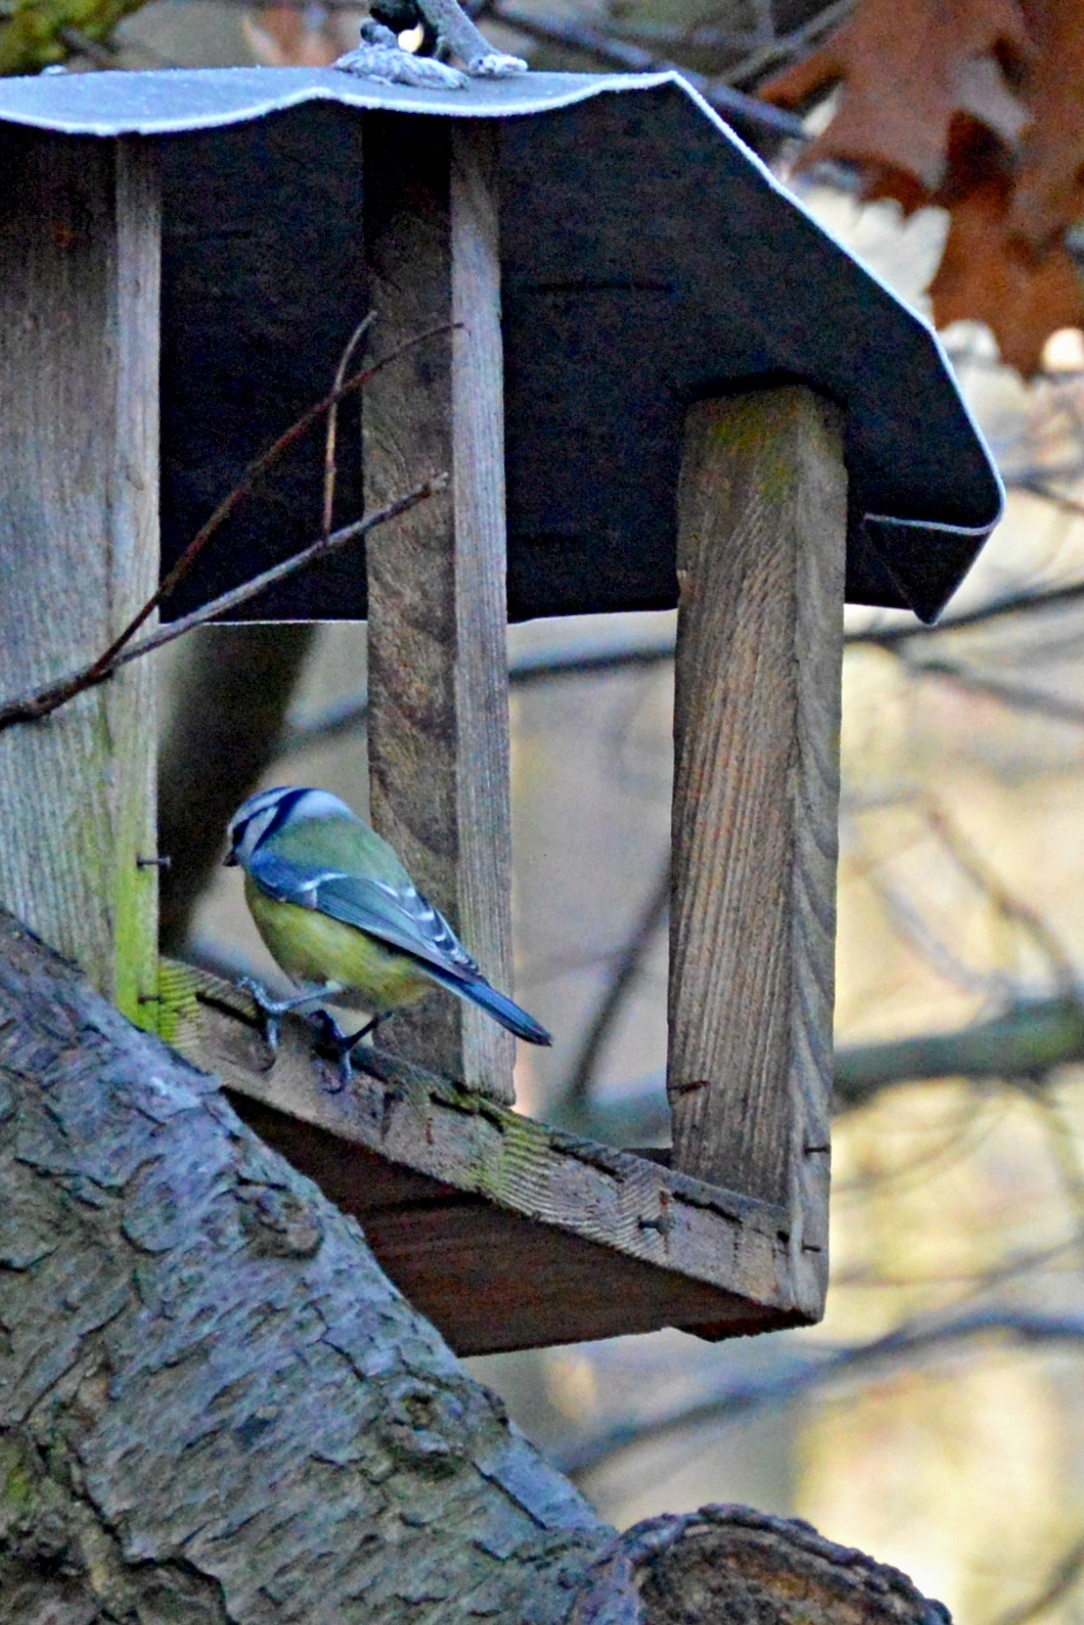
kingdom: Animalia
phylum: Chordata
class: Aves
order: Passeriformes
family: Paridae
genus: Cyanistes
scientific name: Cyanistes caeruleus
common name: Eurasian blue tit
